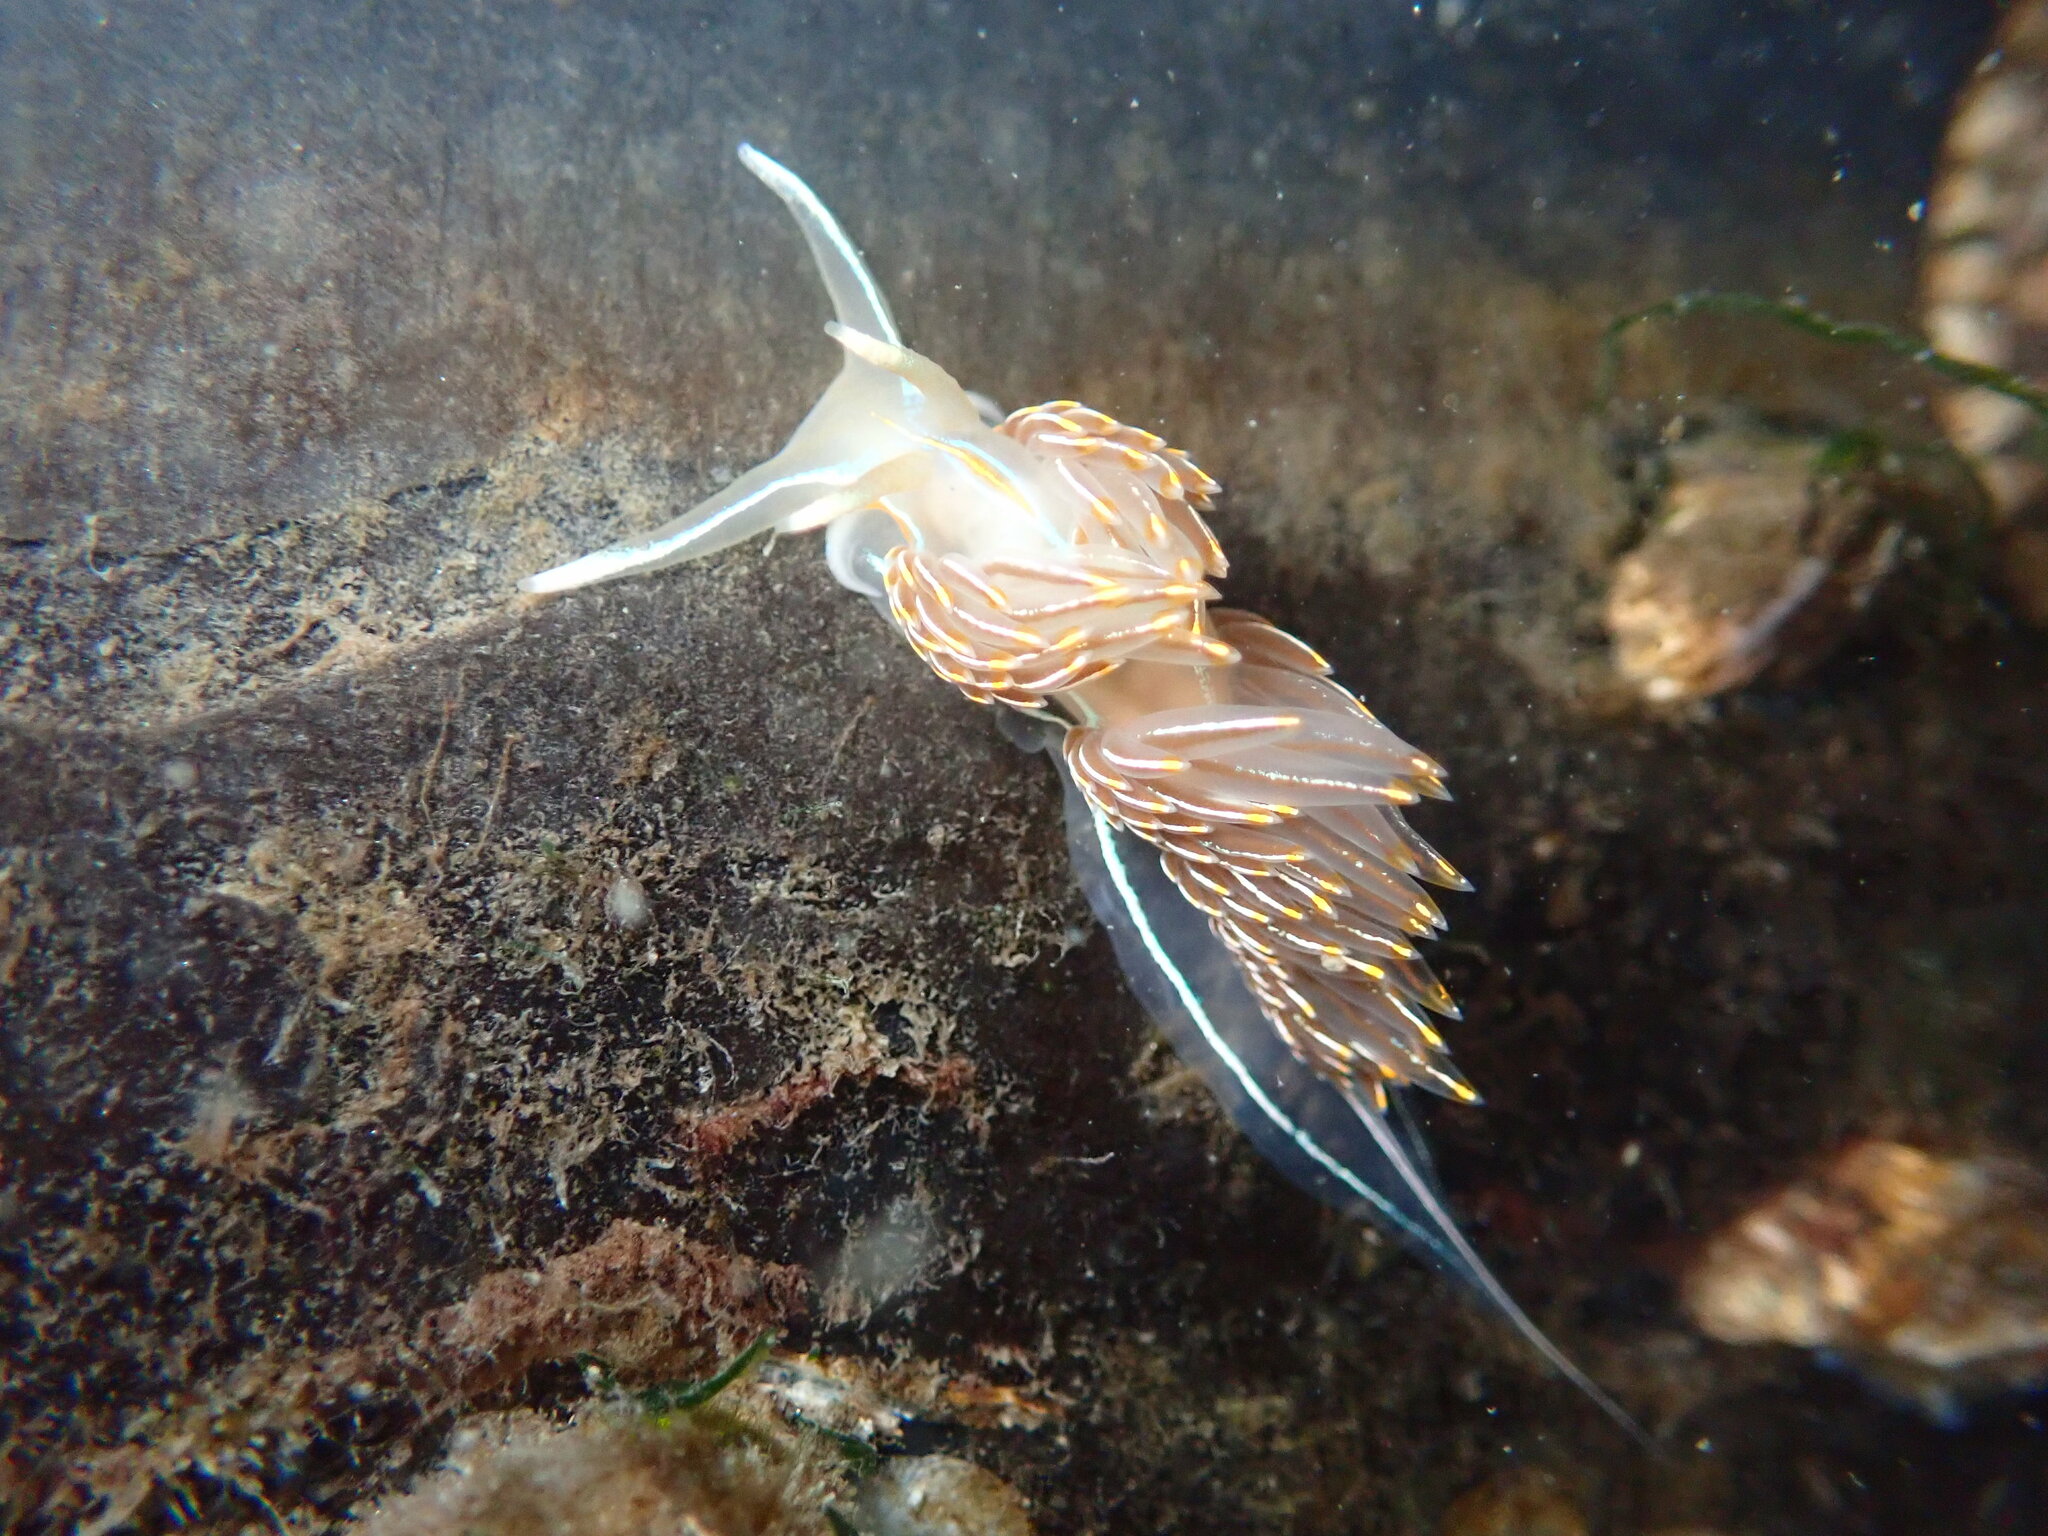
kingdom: Animalia
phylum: Mollusca
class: Gastropoda
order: Nudibranchia
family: Myrrhinidae
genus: Hermissenda
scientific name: Hermissenda crassicornis
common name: Hermissenda
